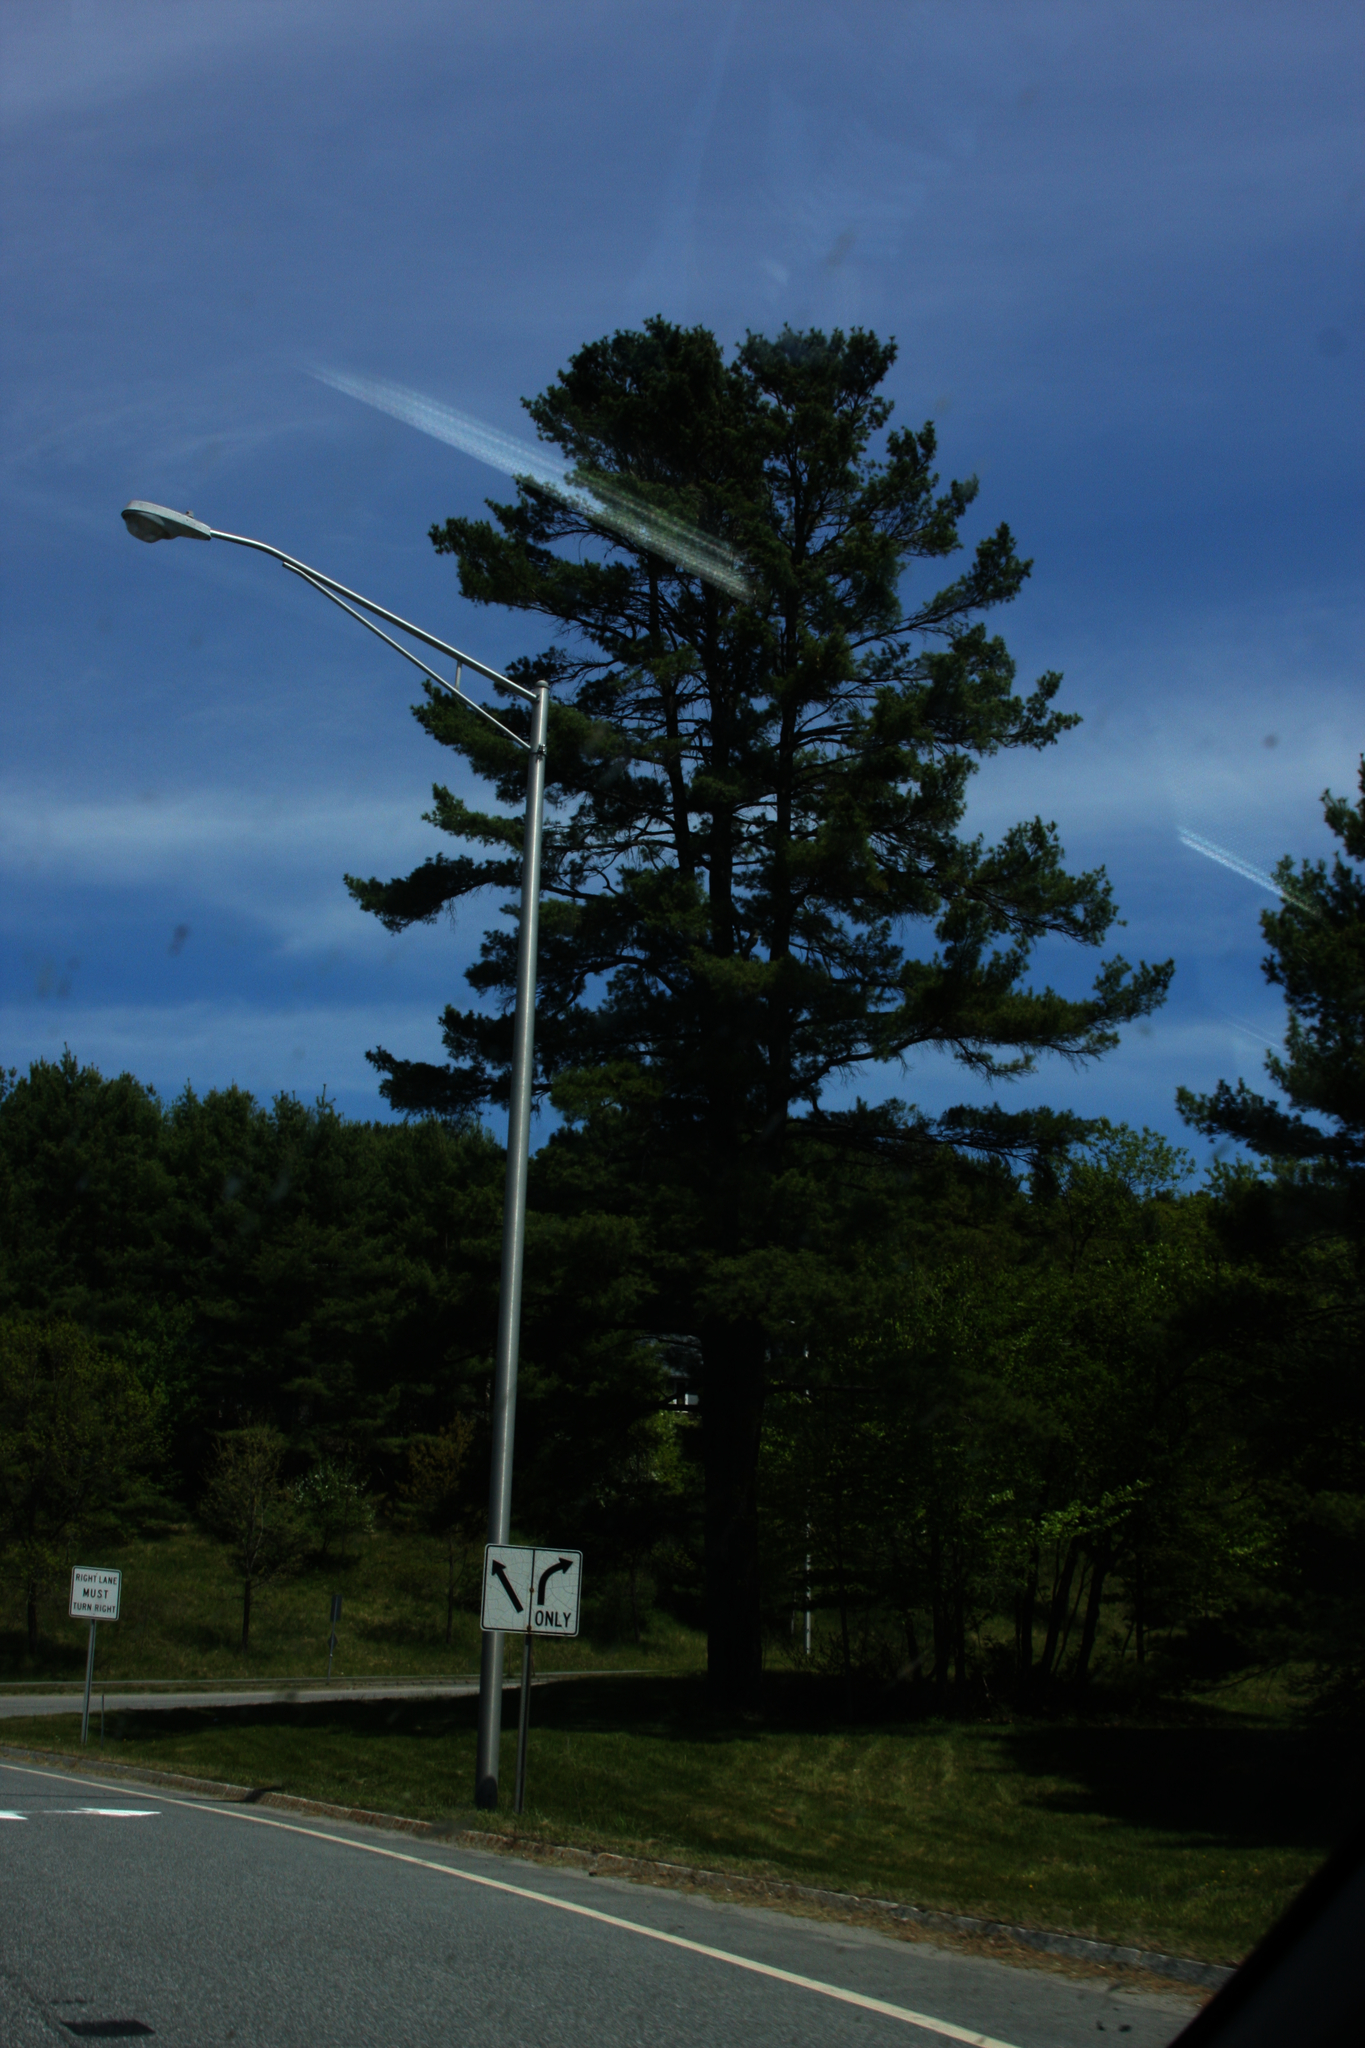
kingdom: Plantae
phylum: Tracheophyta
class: Pinopsida
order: Pinales
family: Pinaceae
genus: Pinus
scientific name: Pinus strobus
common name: Weymouth pine
